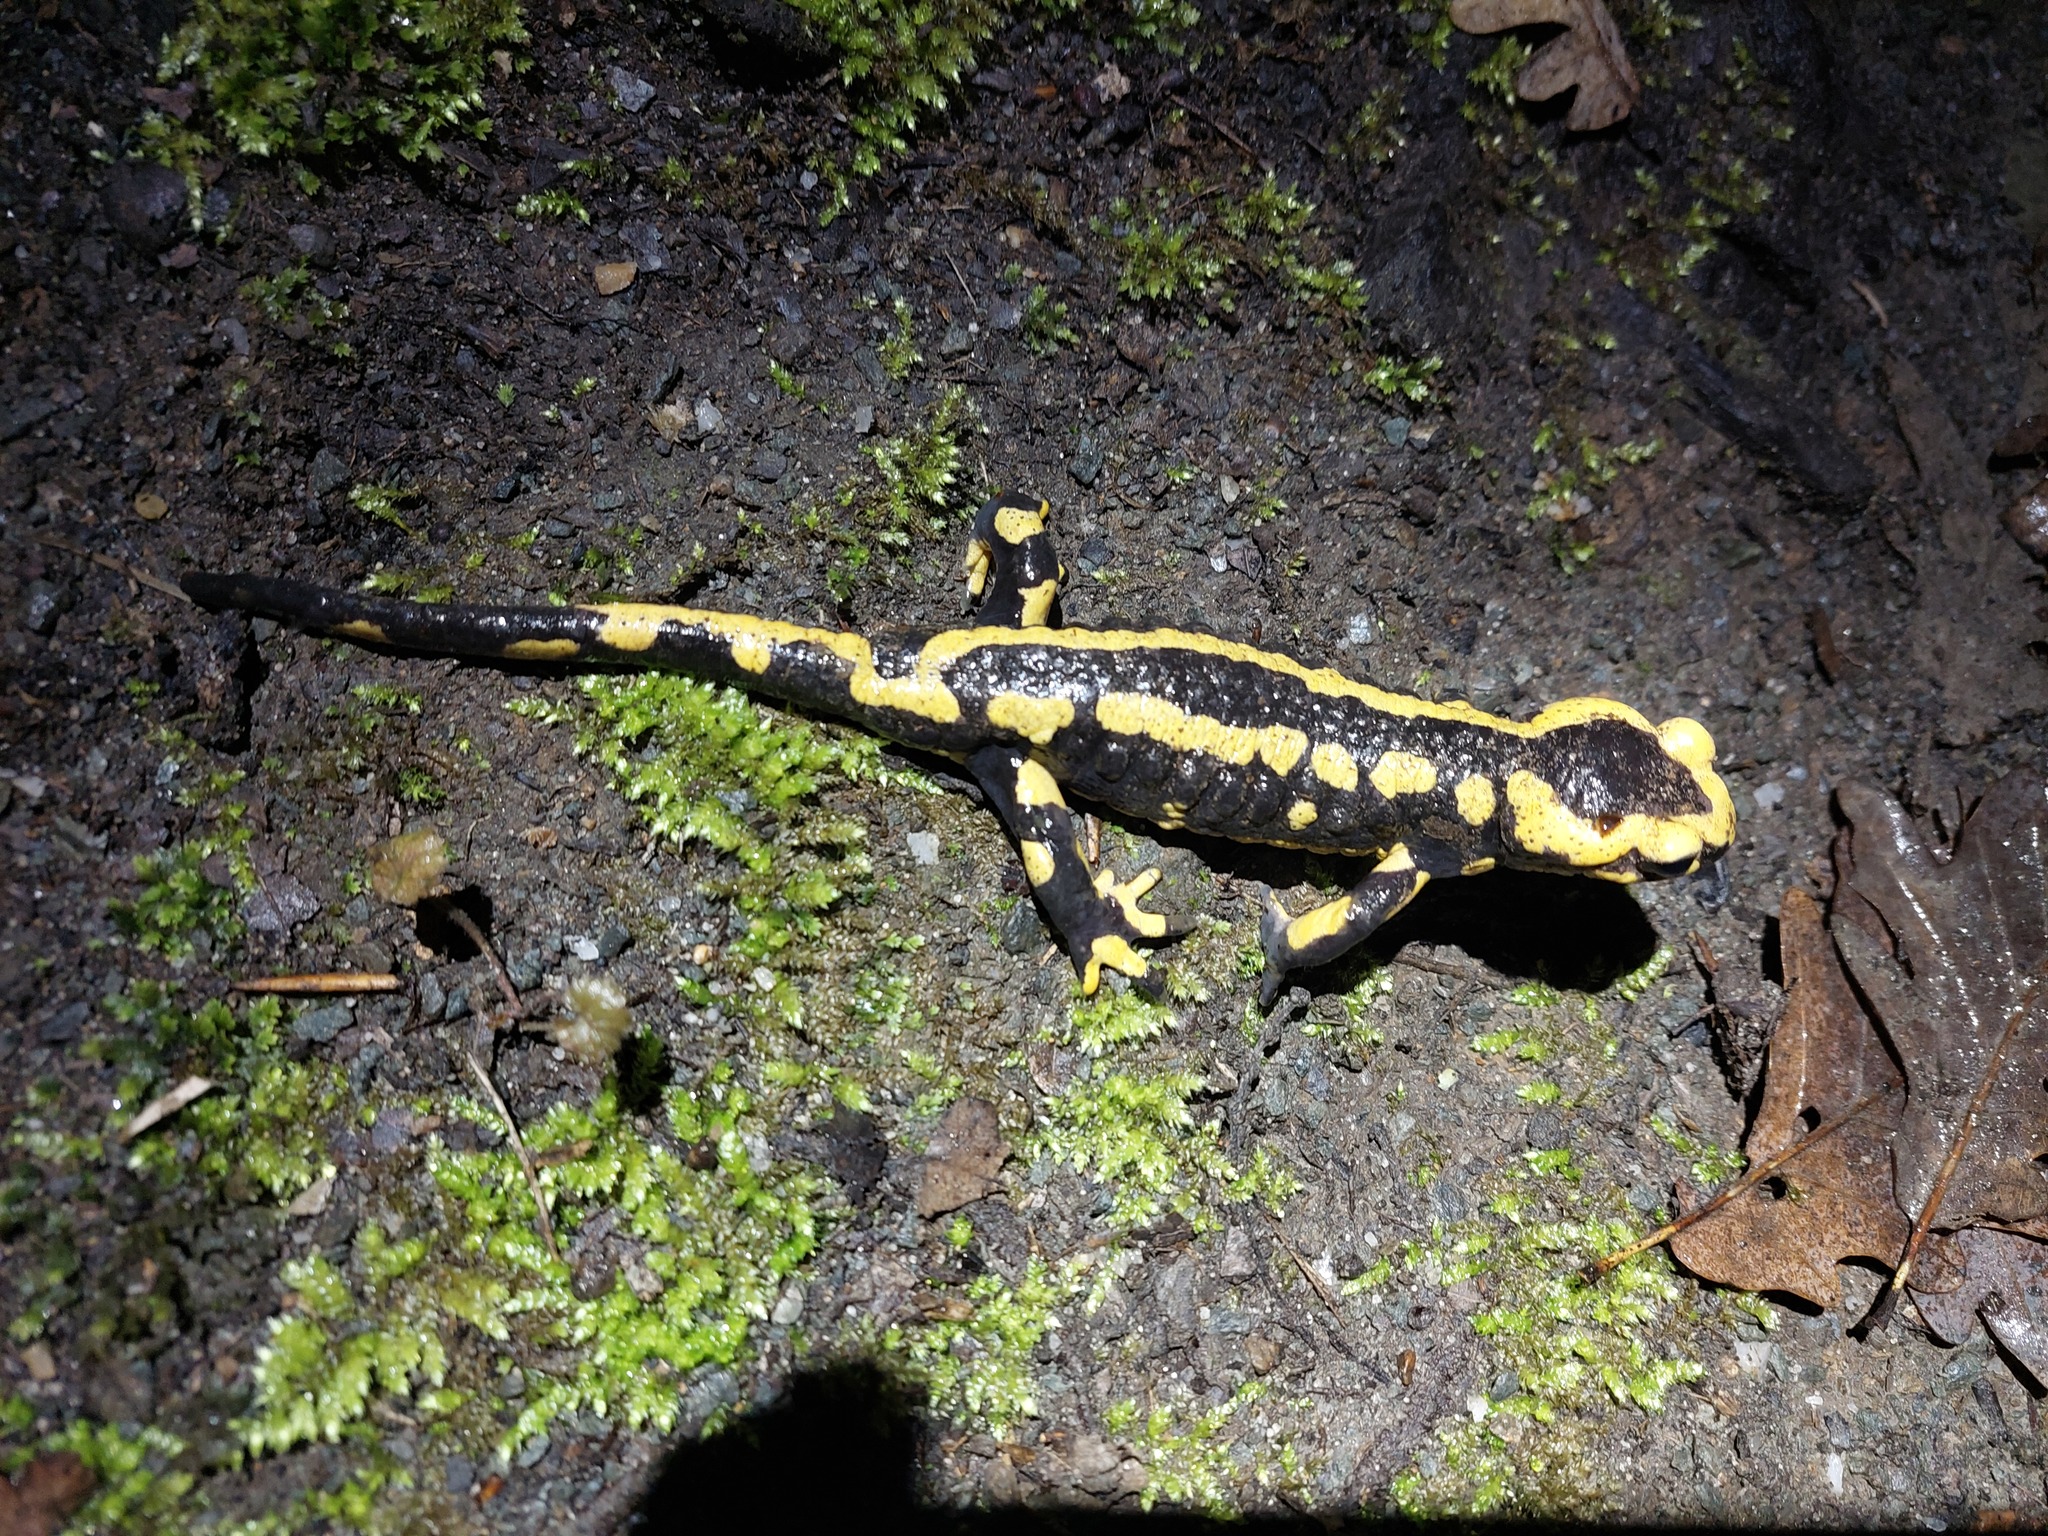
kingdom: Animalia
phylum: Chordata
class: Amphibia
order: Caudata
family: Salamandridae
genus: Salamandra
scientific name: Salamandra salamandra
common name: Fire salamander
